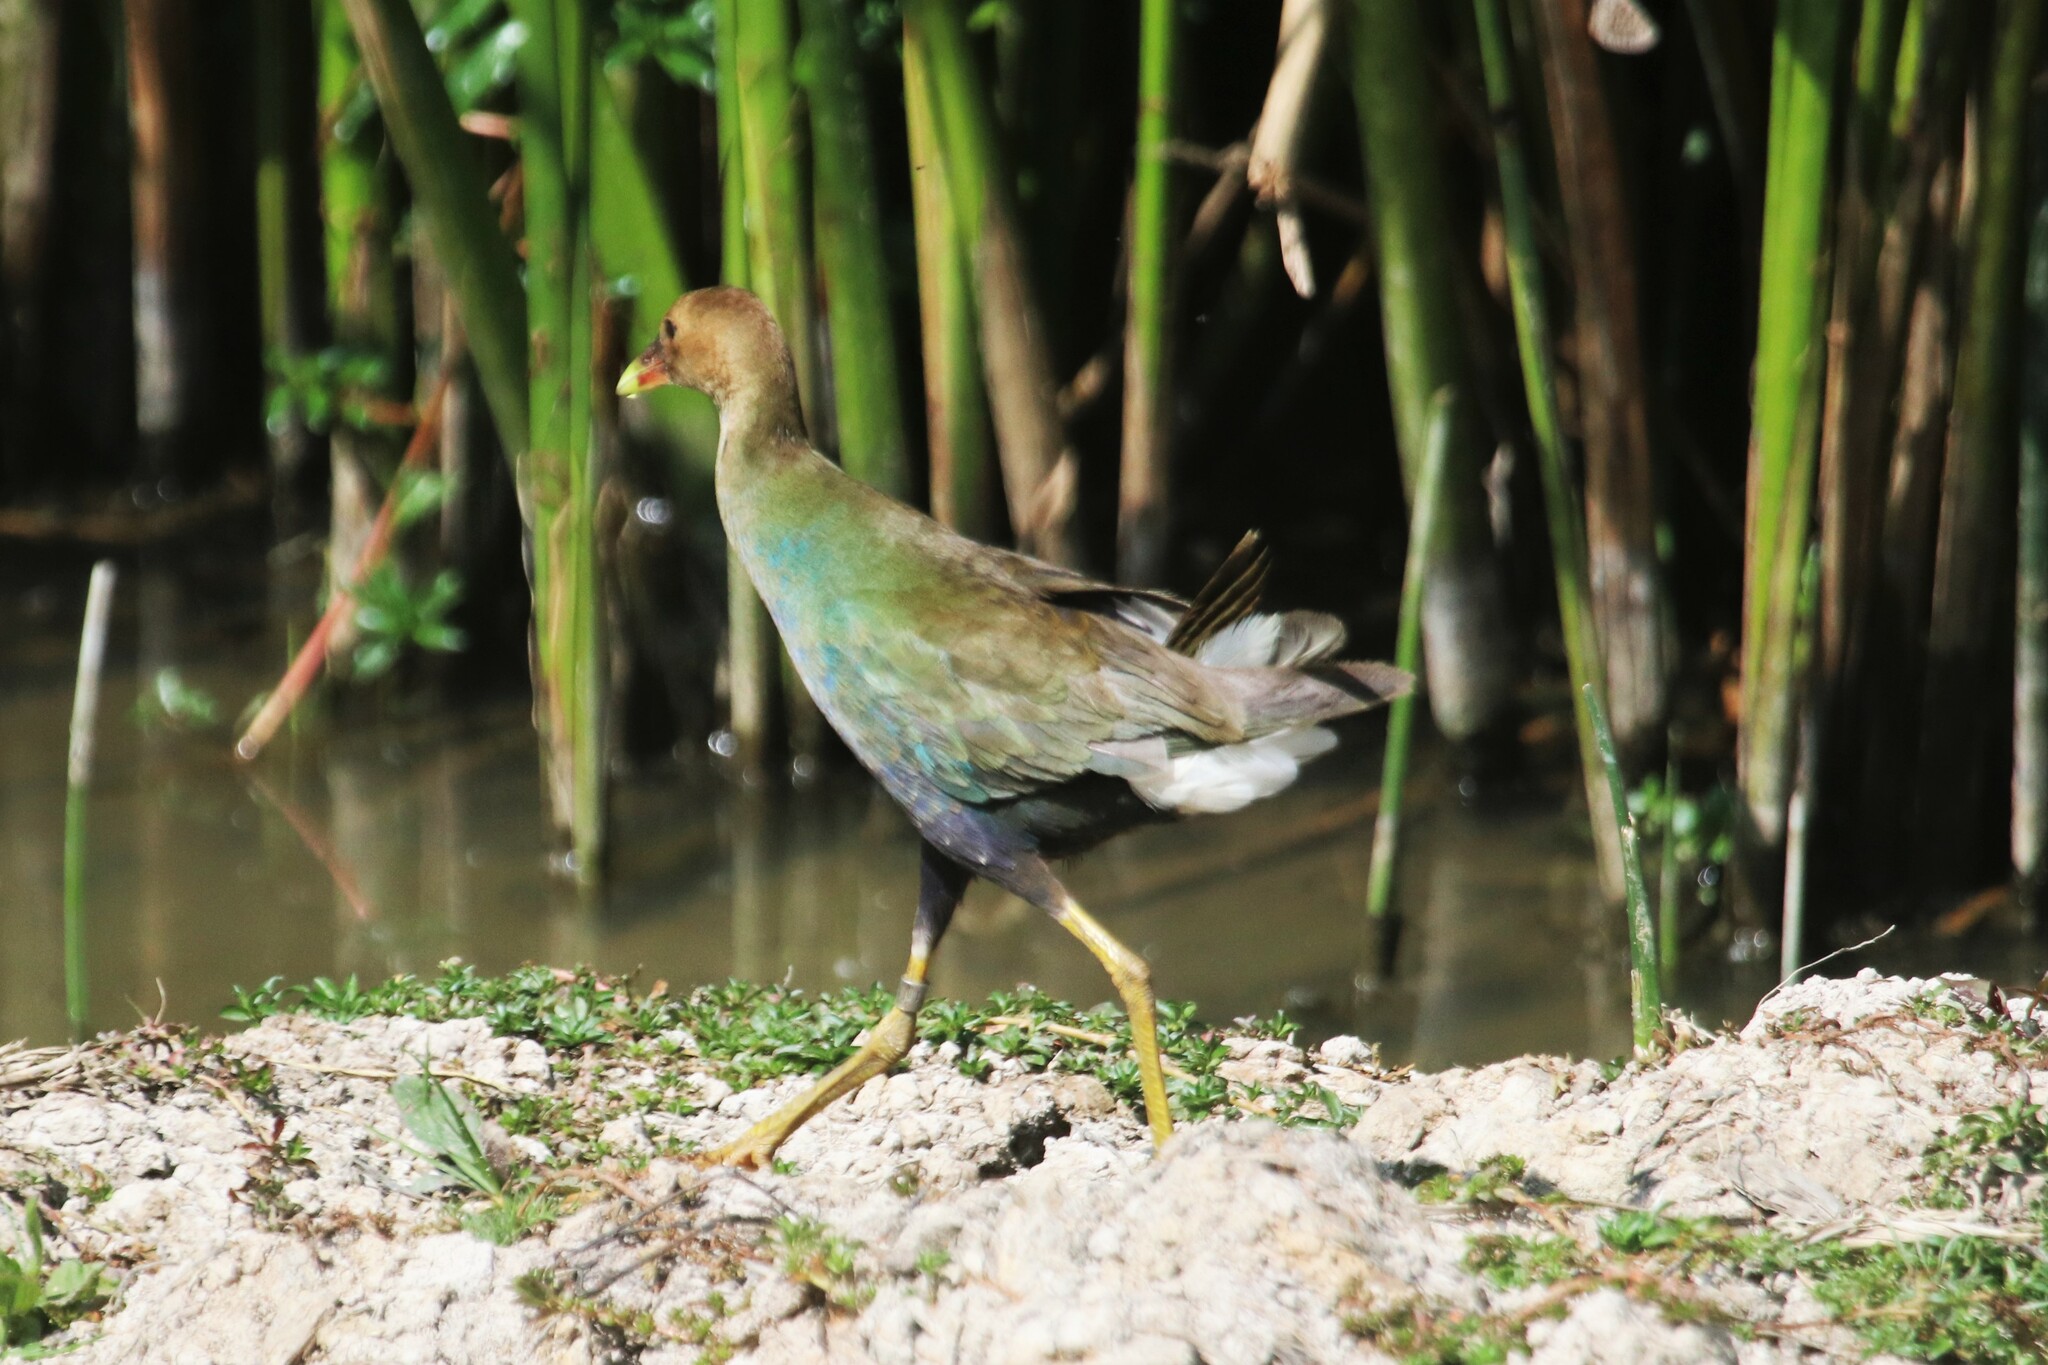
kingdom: Animalia
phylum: Chordata
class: Aves
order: Gruiformes
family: Rallidae
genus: Porphyrio
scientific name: Porphyrio martinica
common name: Purple gallinule
